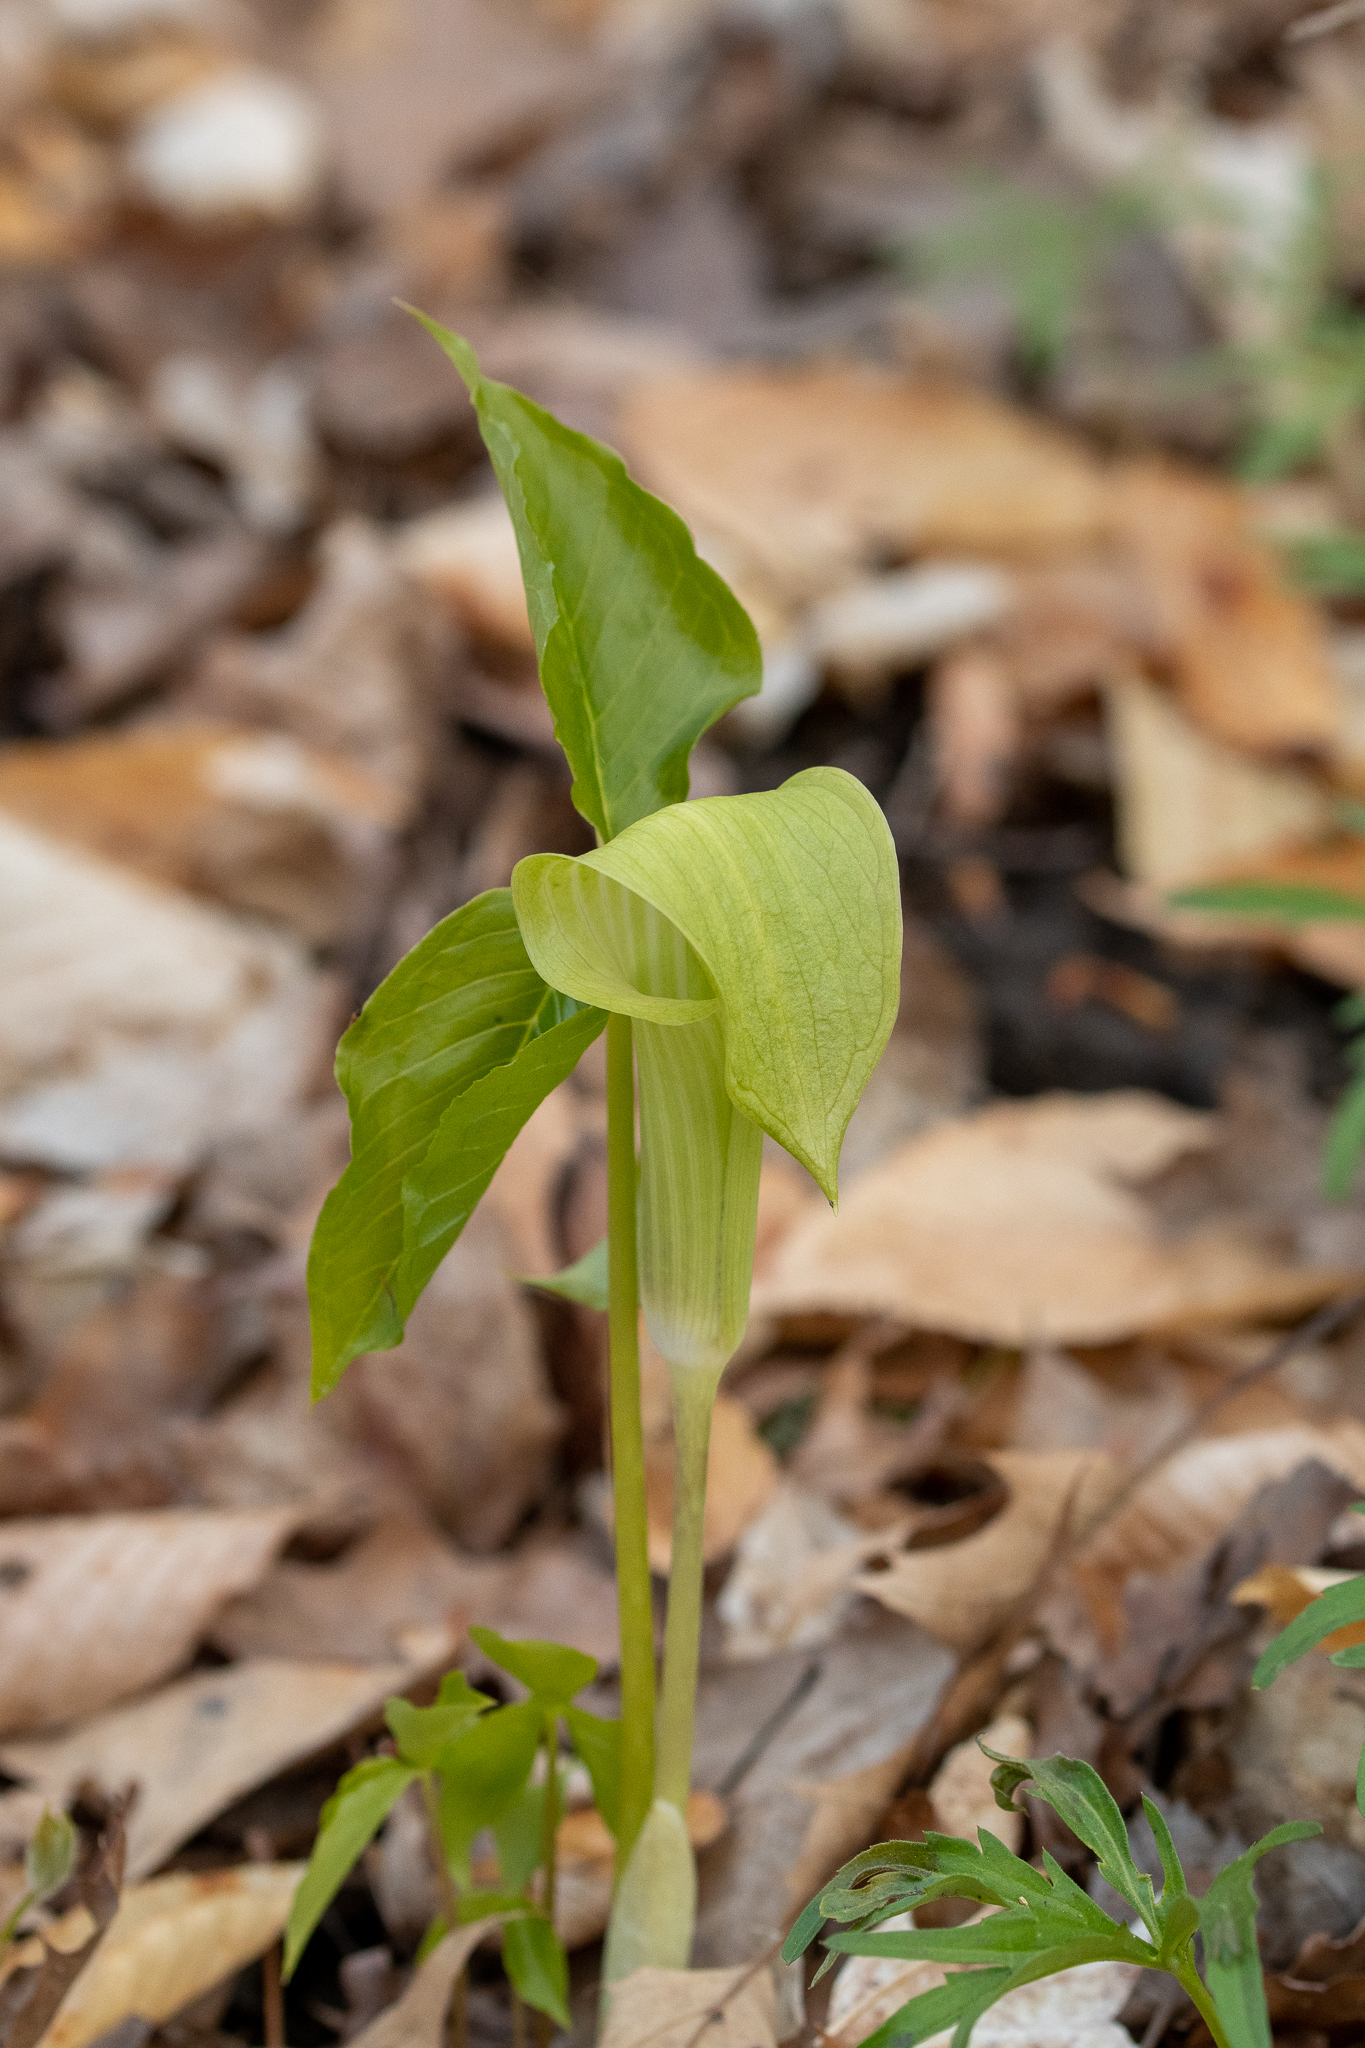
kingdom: Plantae
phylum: Tracheophyta
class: Liliopsida
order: Alismatales
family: Araceae
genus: Arisaema
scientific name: Arisaema triphyllum
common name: Jack-in-the-pulpit
